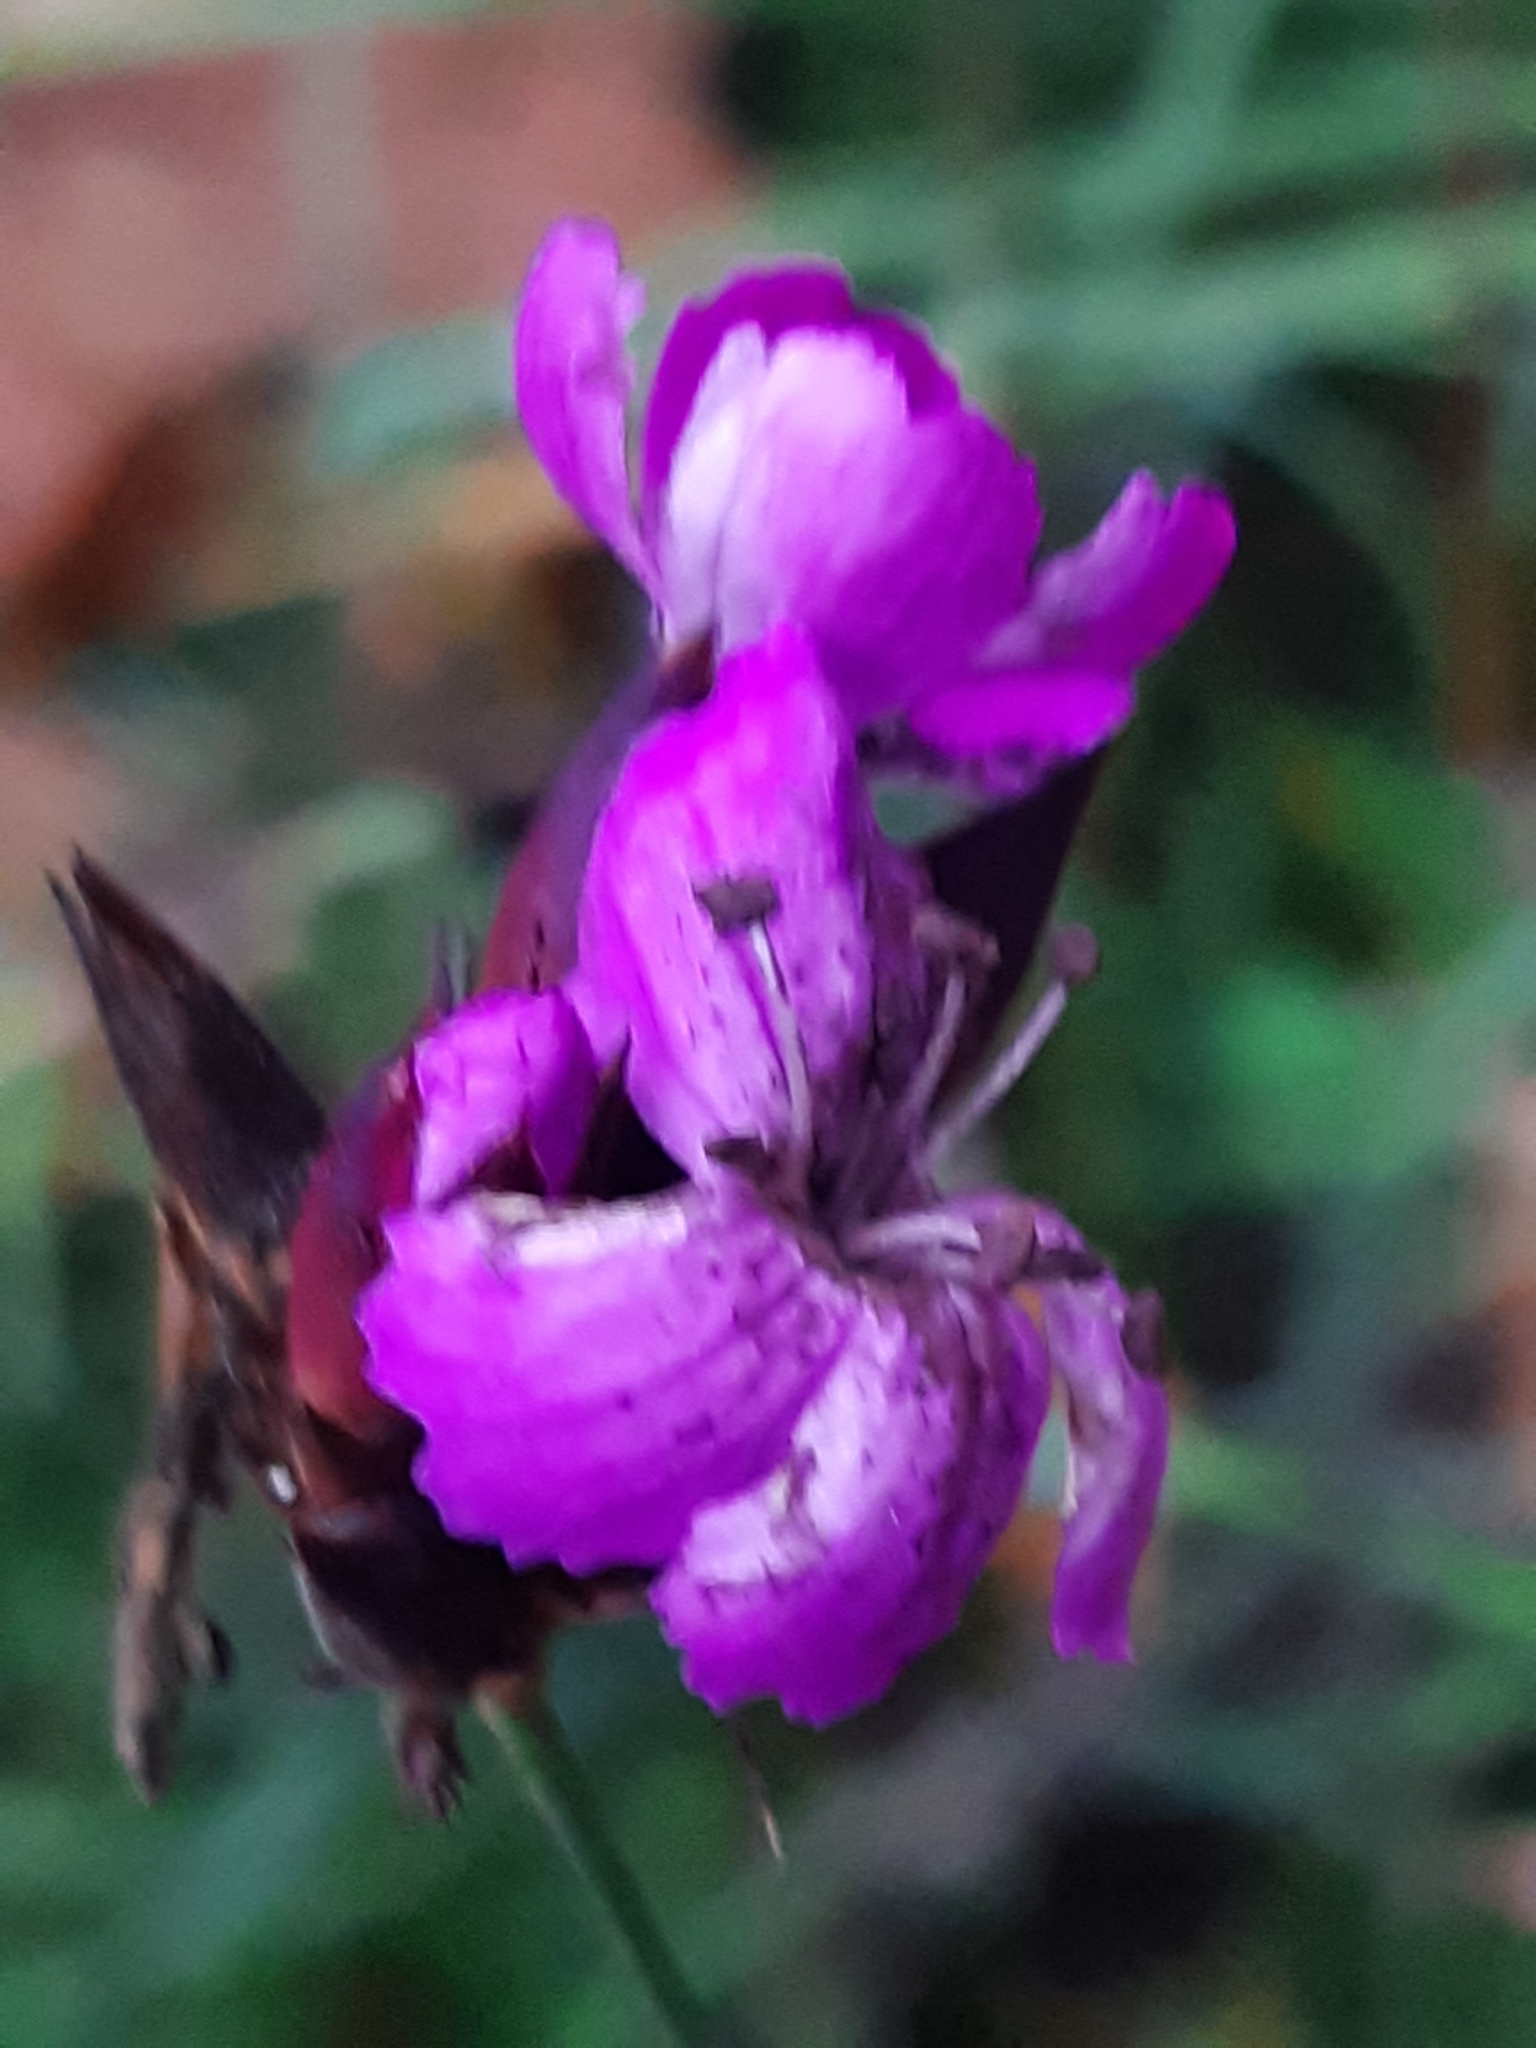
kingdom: Fungi
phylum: Basidiomycota
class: Microbotryomycetes
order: Microbotryales
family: Microbotryaceae
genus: Microbotryum
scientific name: Microbotryum dianthorum
